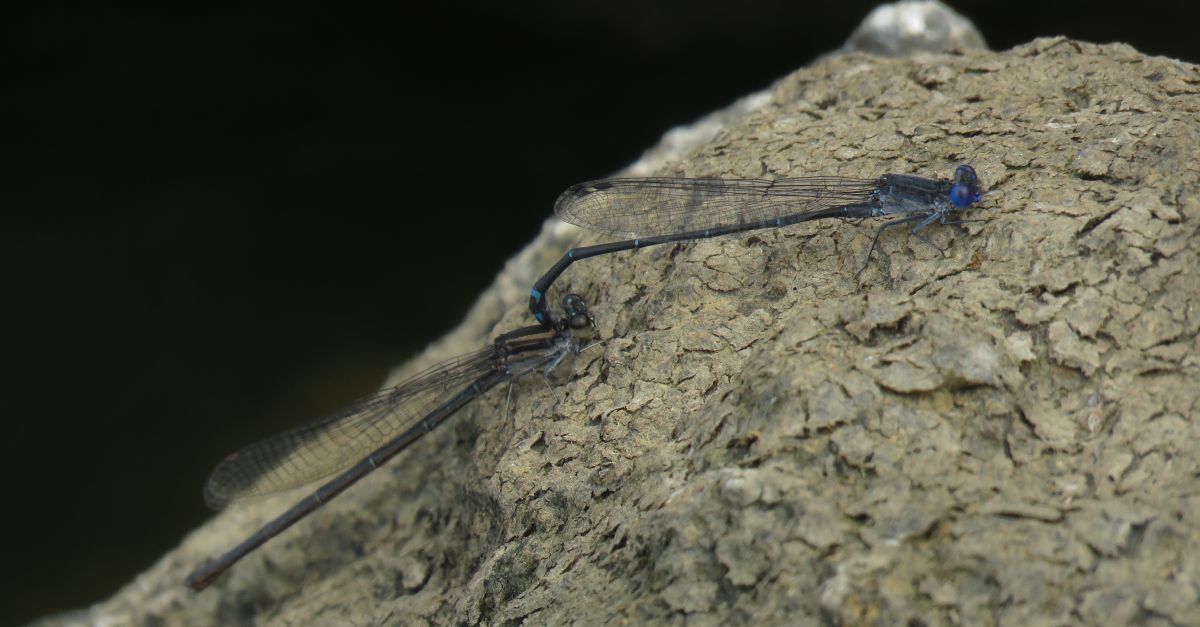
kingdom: Animalia
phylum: Arthropoda
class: Insecta
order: Odonata
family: Coenagrionidae
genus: Argia
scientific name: Argia translata
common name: Dusky dancer
